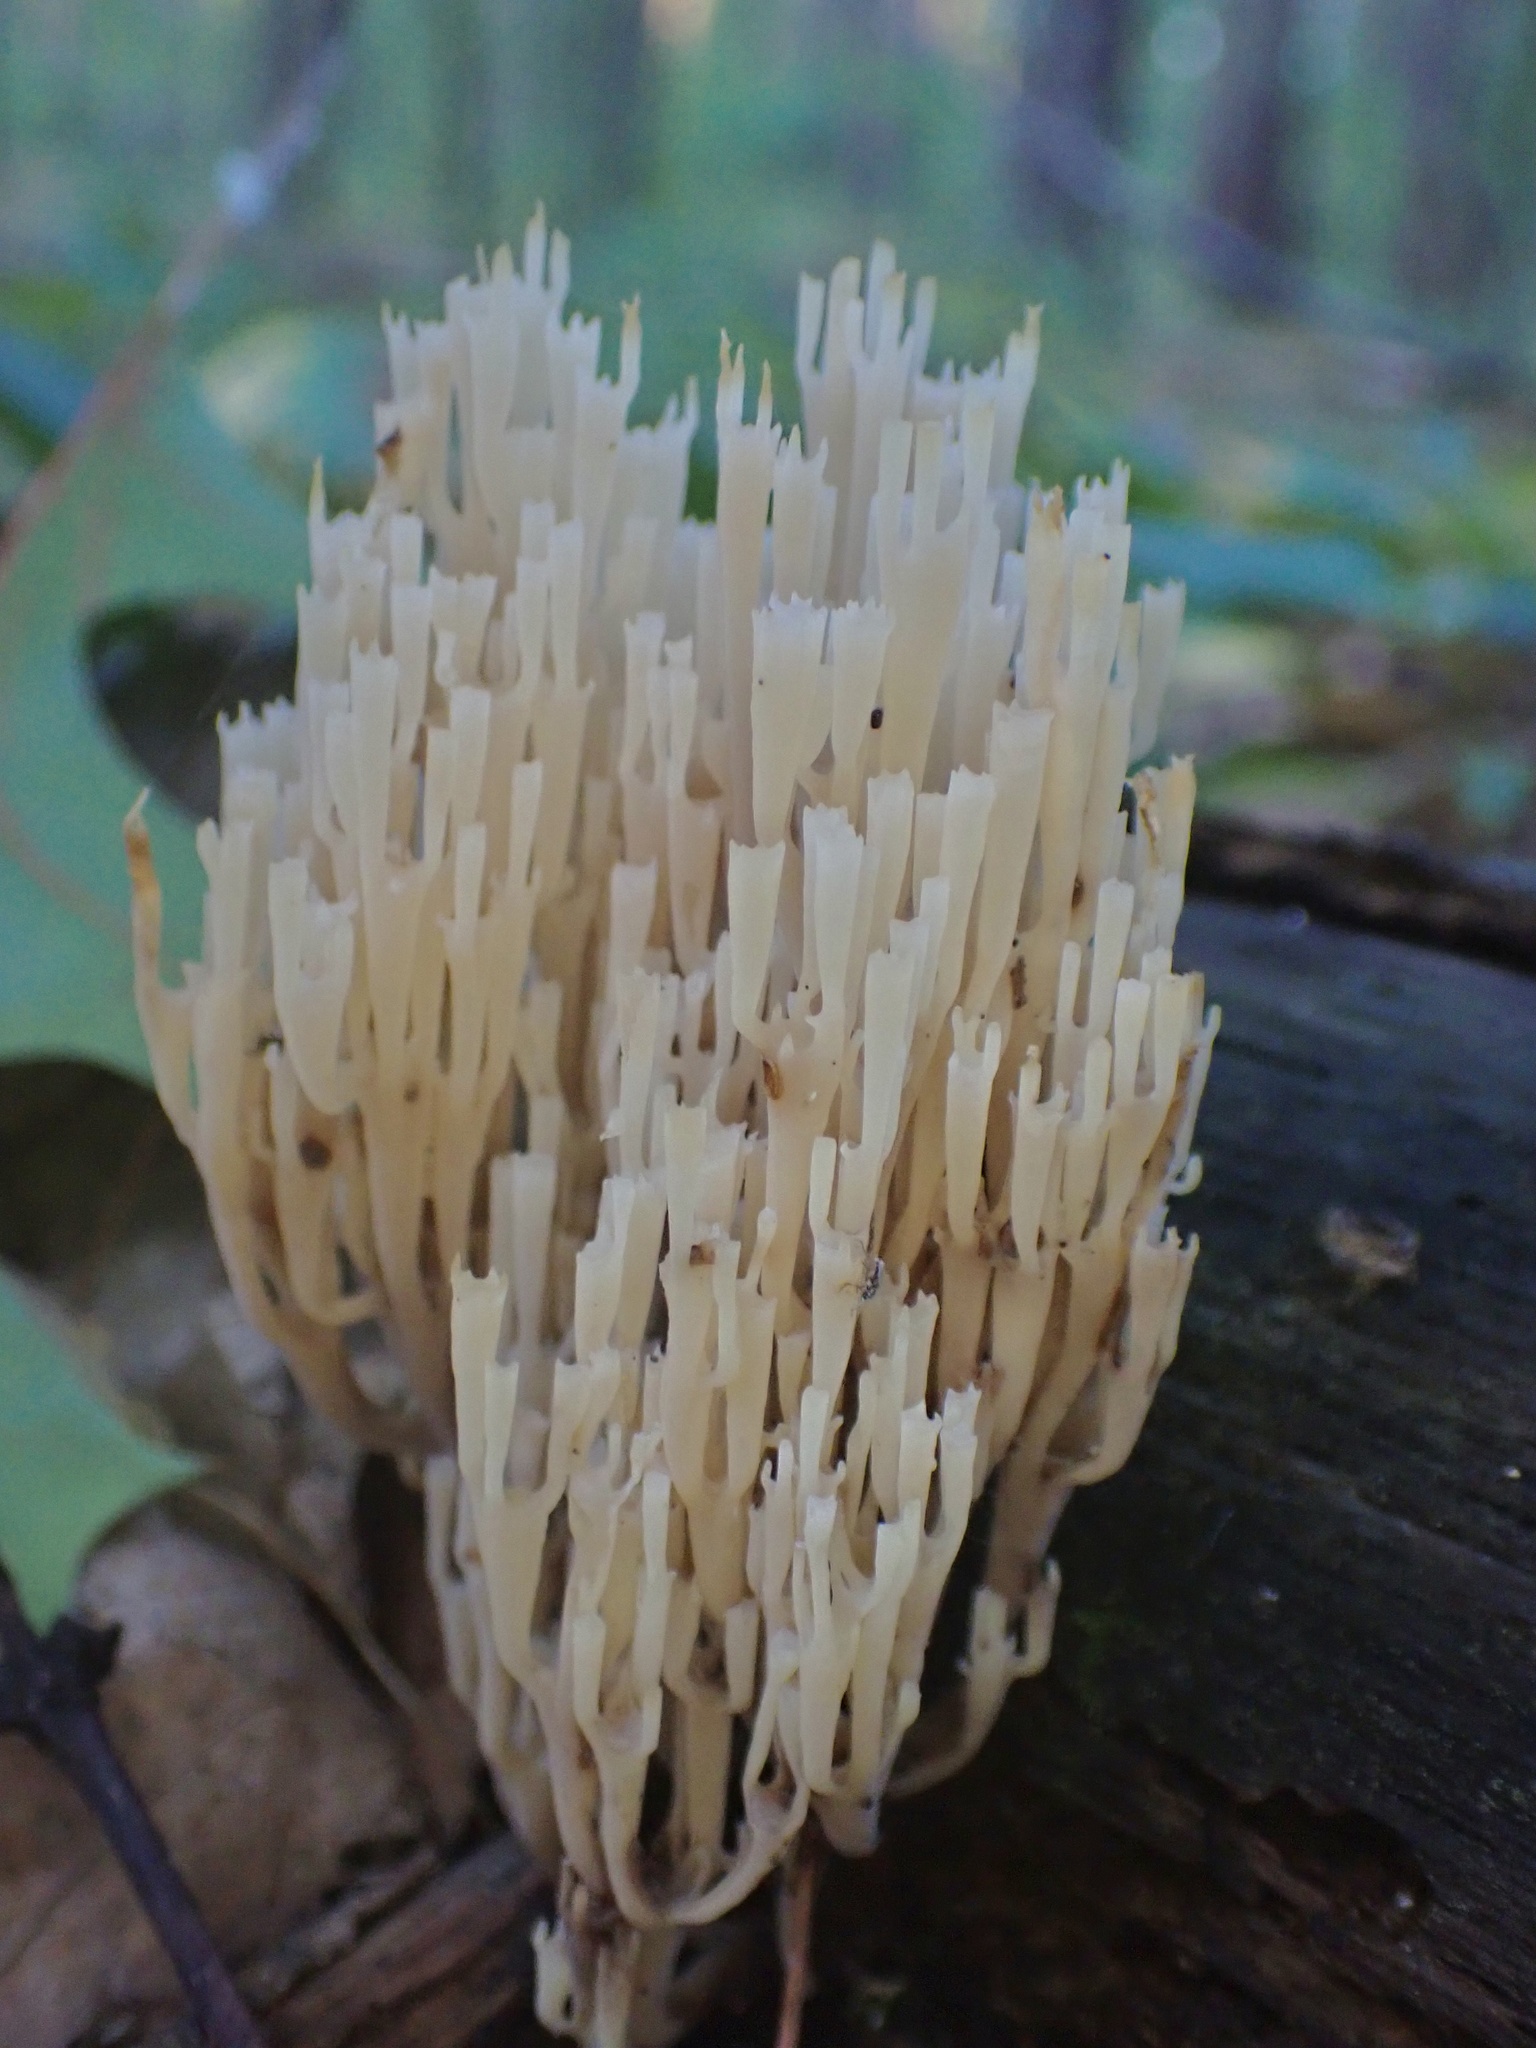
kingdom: Fungi
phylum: Basidiomycota
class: Agaricomycetes
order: Russulales
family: Auriscalpiaceae
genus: Artomyces
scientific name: Artomyces pyxidatus
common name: Crown-tipped coral fungus
